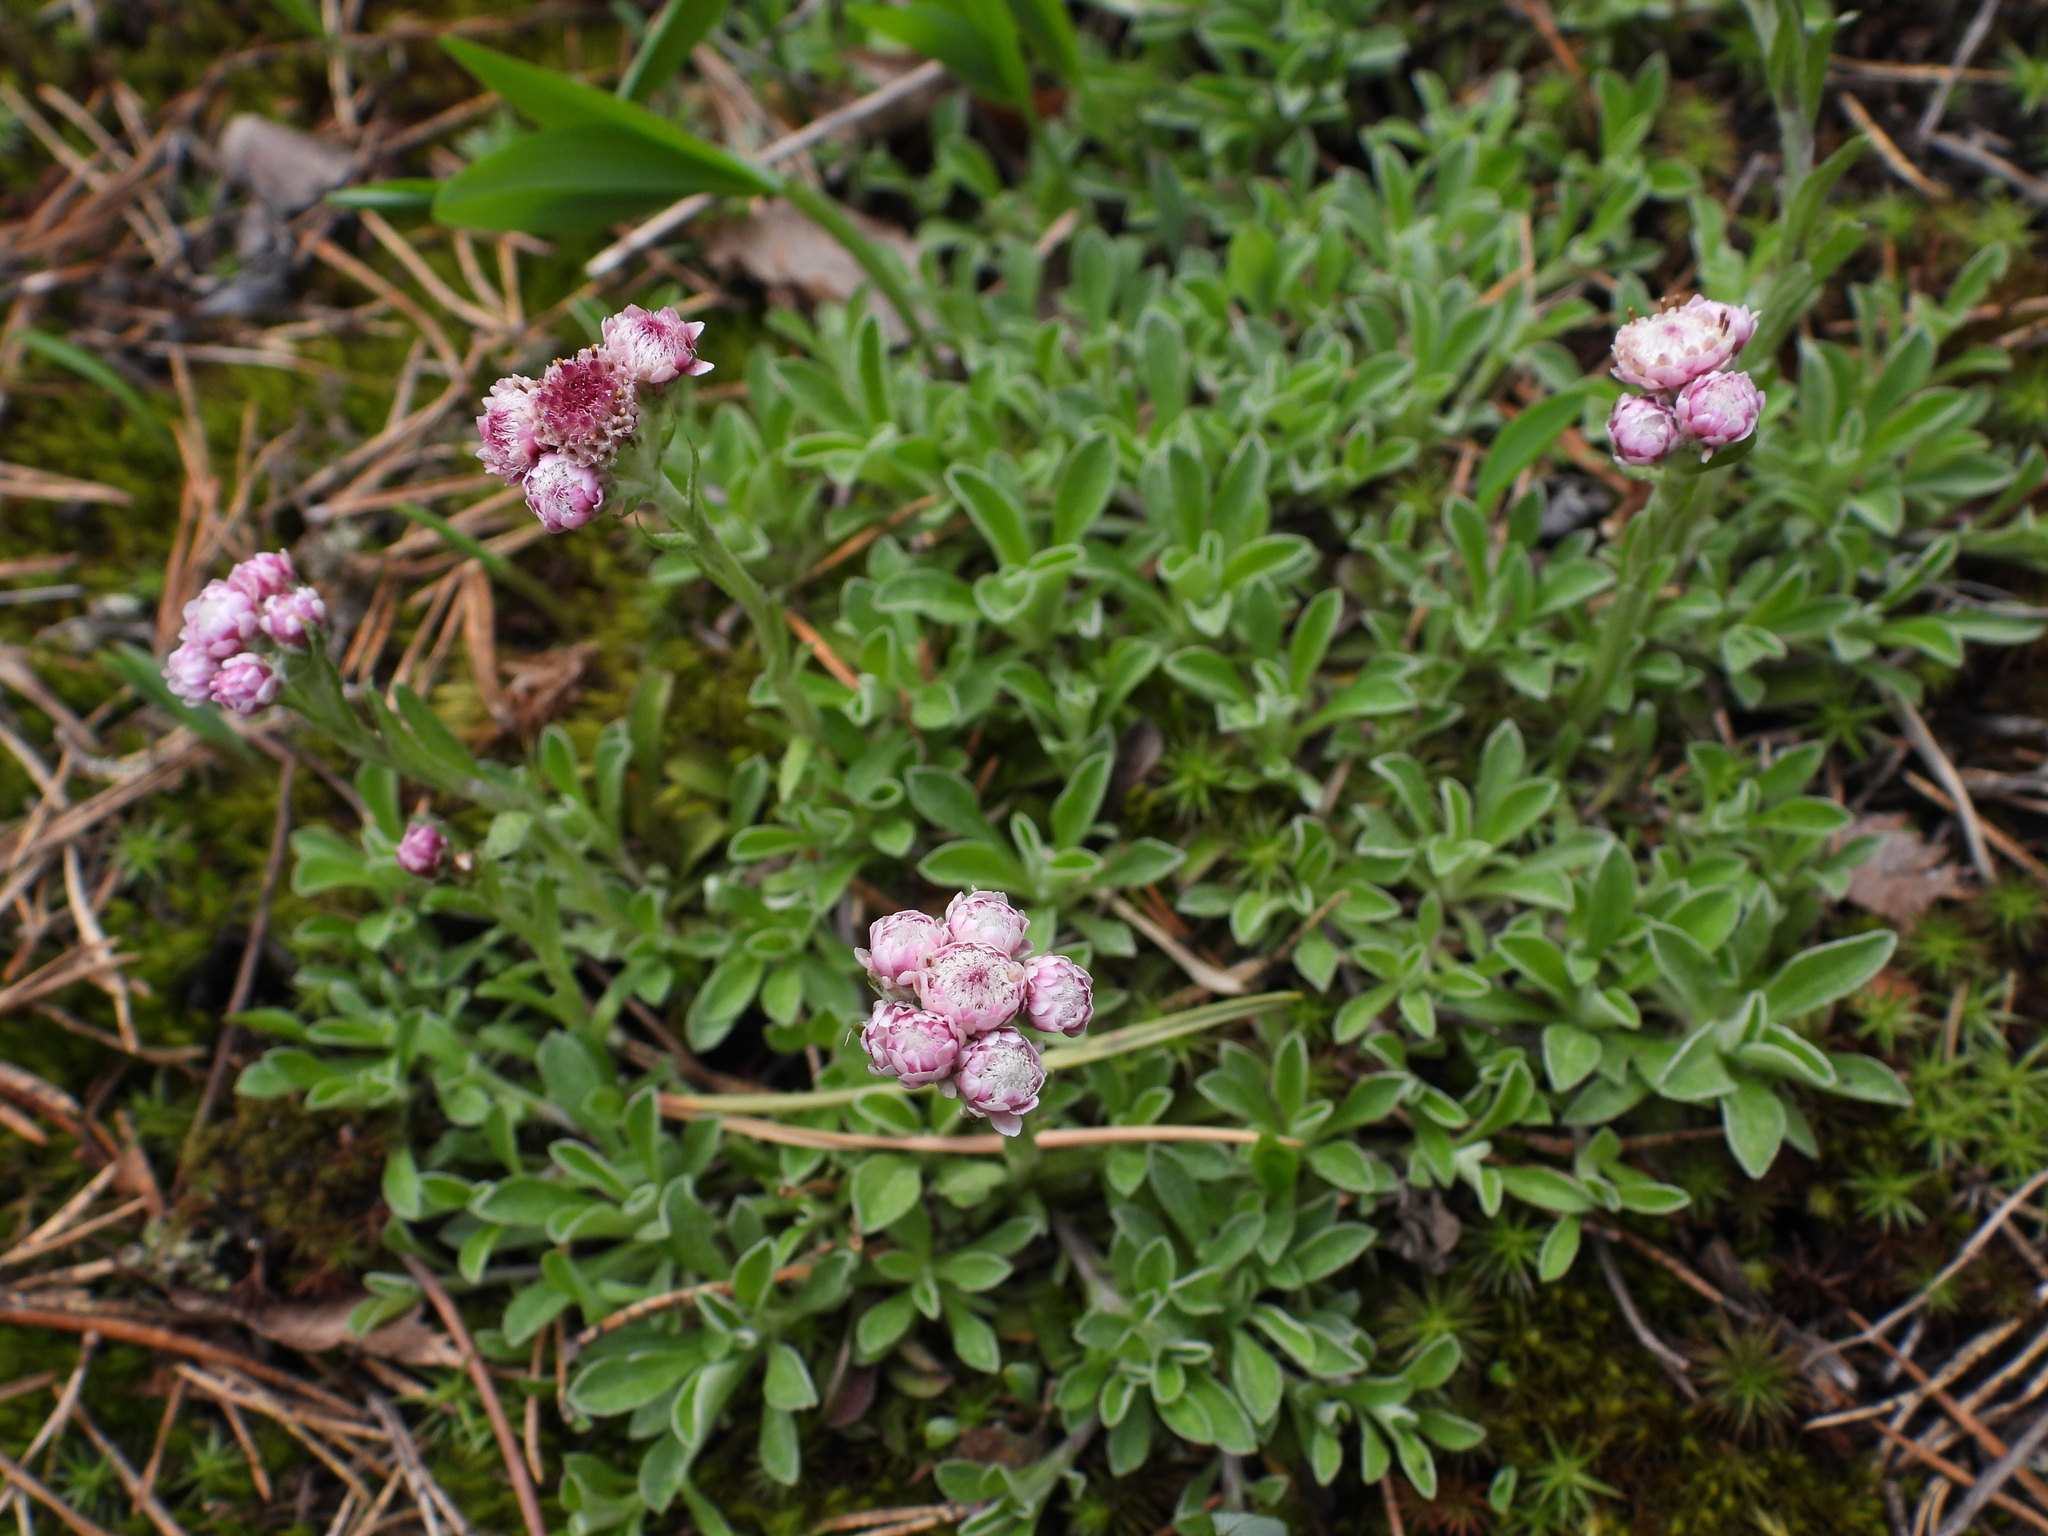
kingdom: Plantae
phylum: Tracheophyta
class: Magnoliopsida
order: Asterales
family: Asteraceae
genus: Antennaria
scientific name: Antennaria dioica
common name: Mountain everlasting
